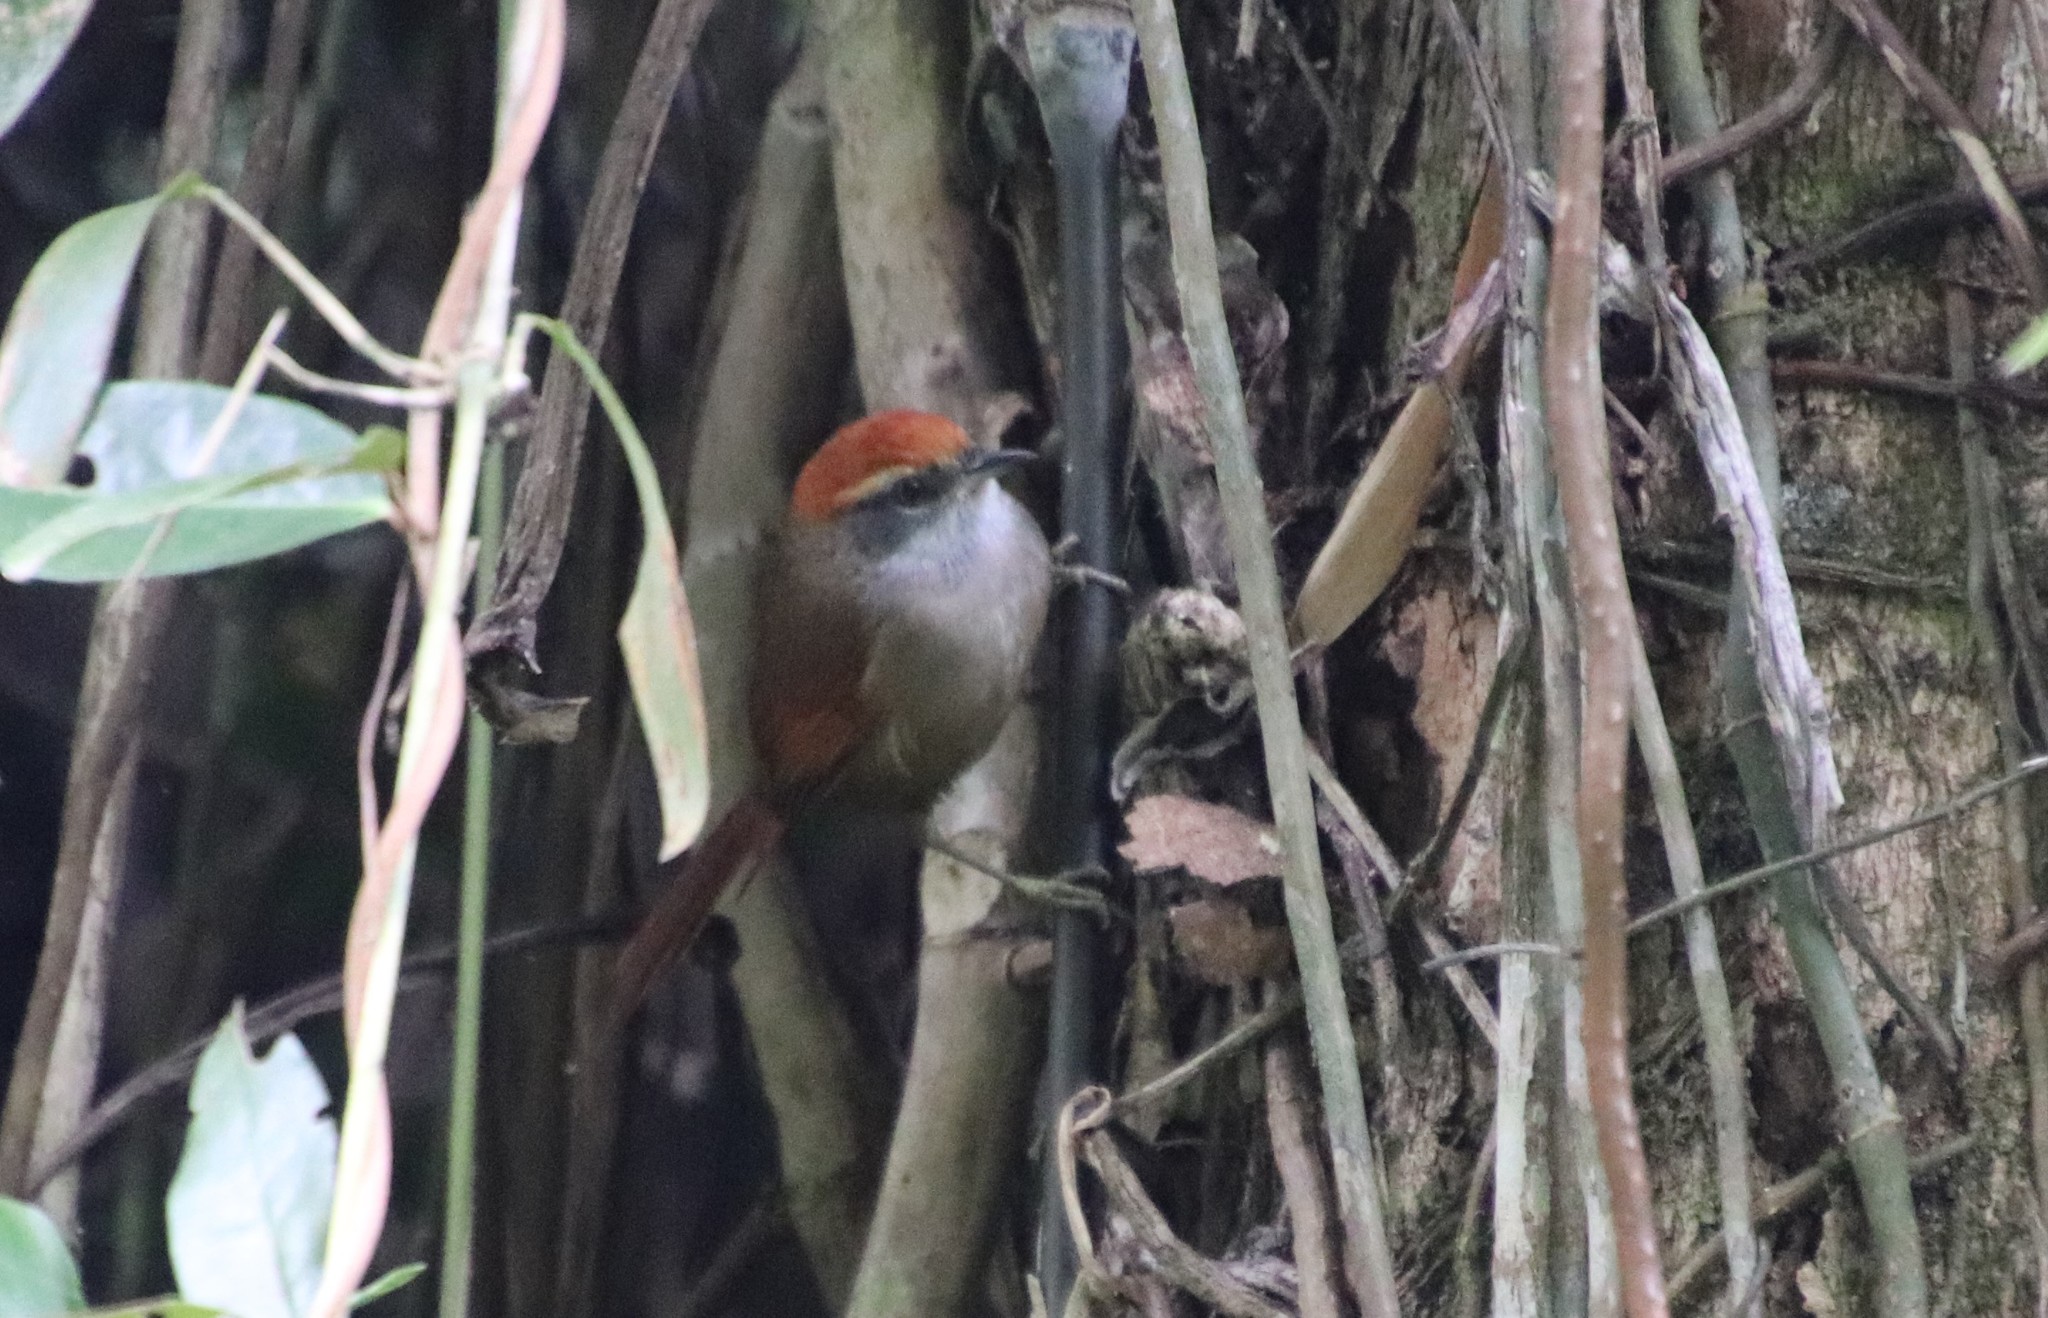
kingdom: Animalia
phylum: Chordata
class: Aves
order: Passeriformes
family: Furnariidae
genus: Synallaxis
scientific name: Synallaxis ruficapilla
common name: Rufous-capped spinetail
